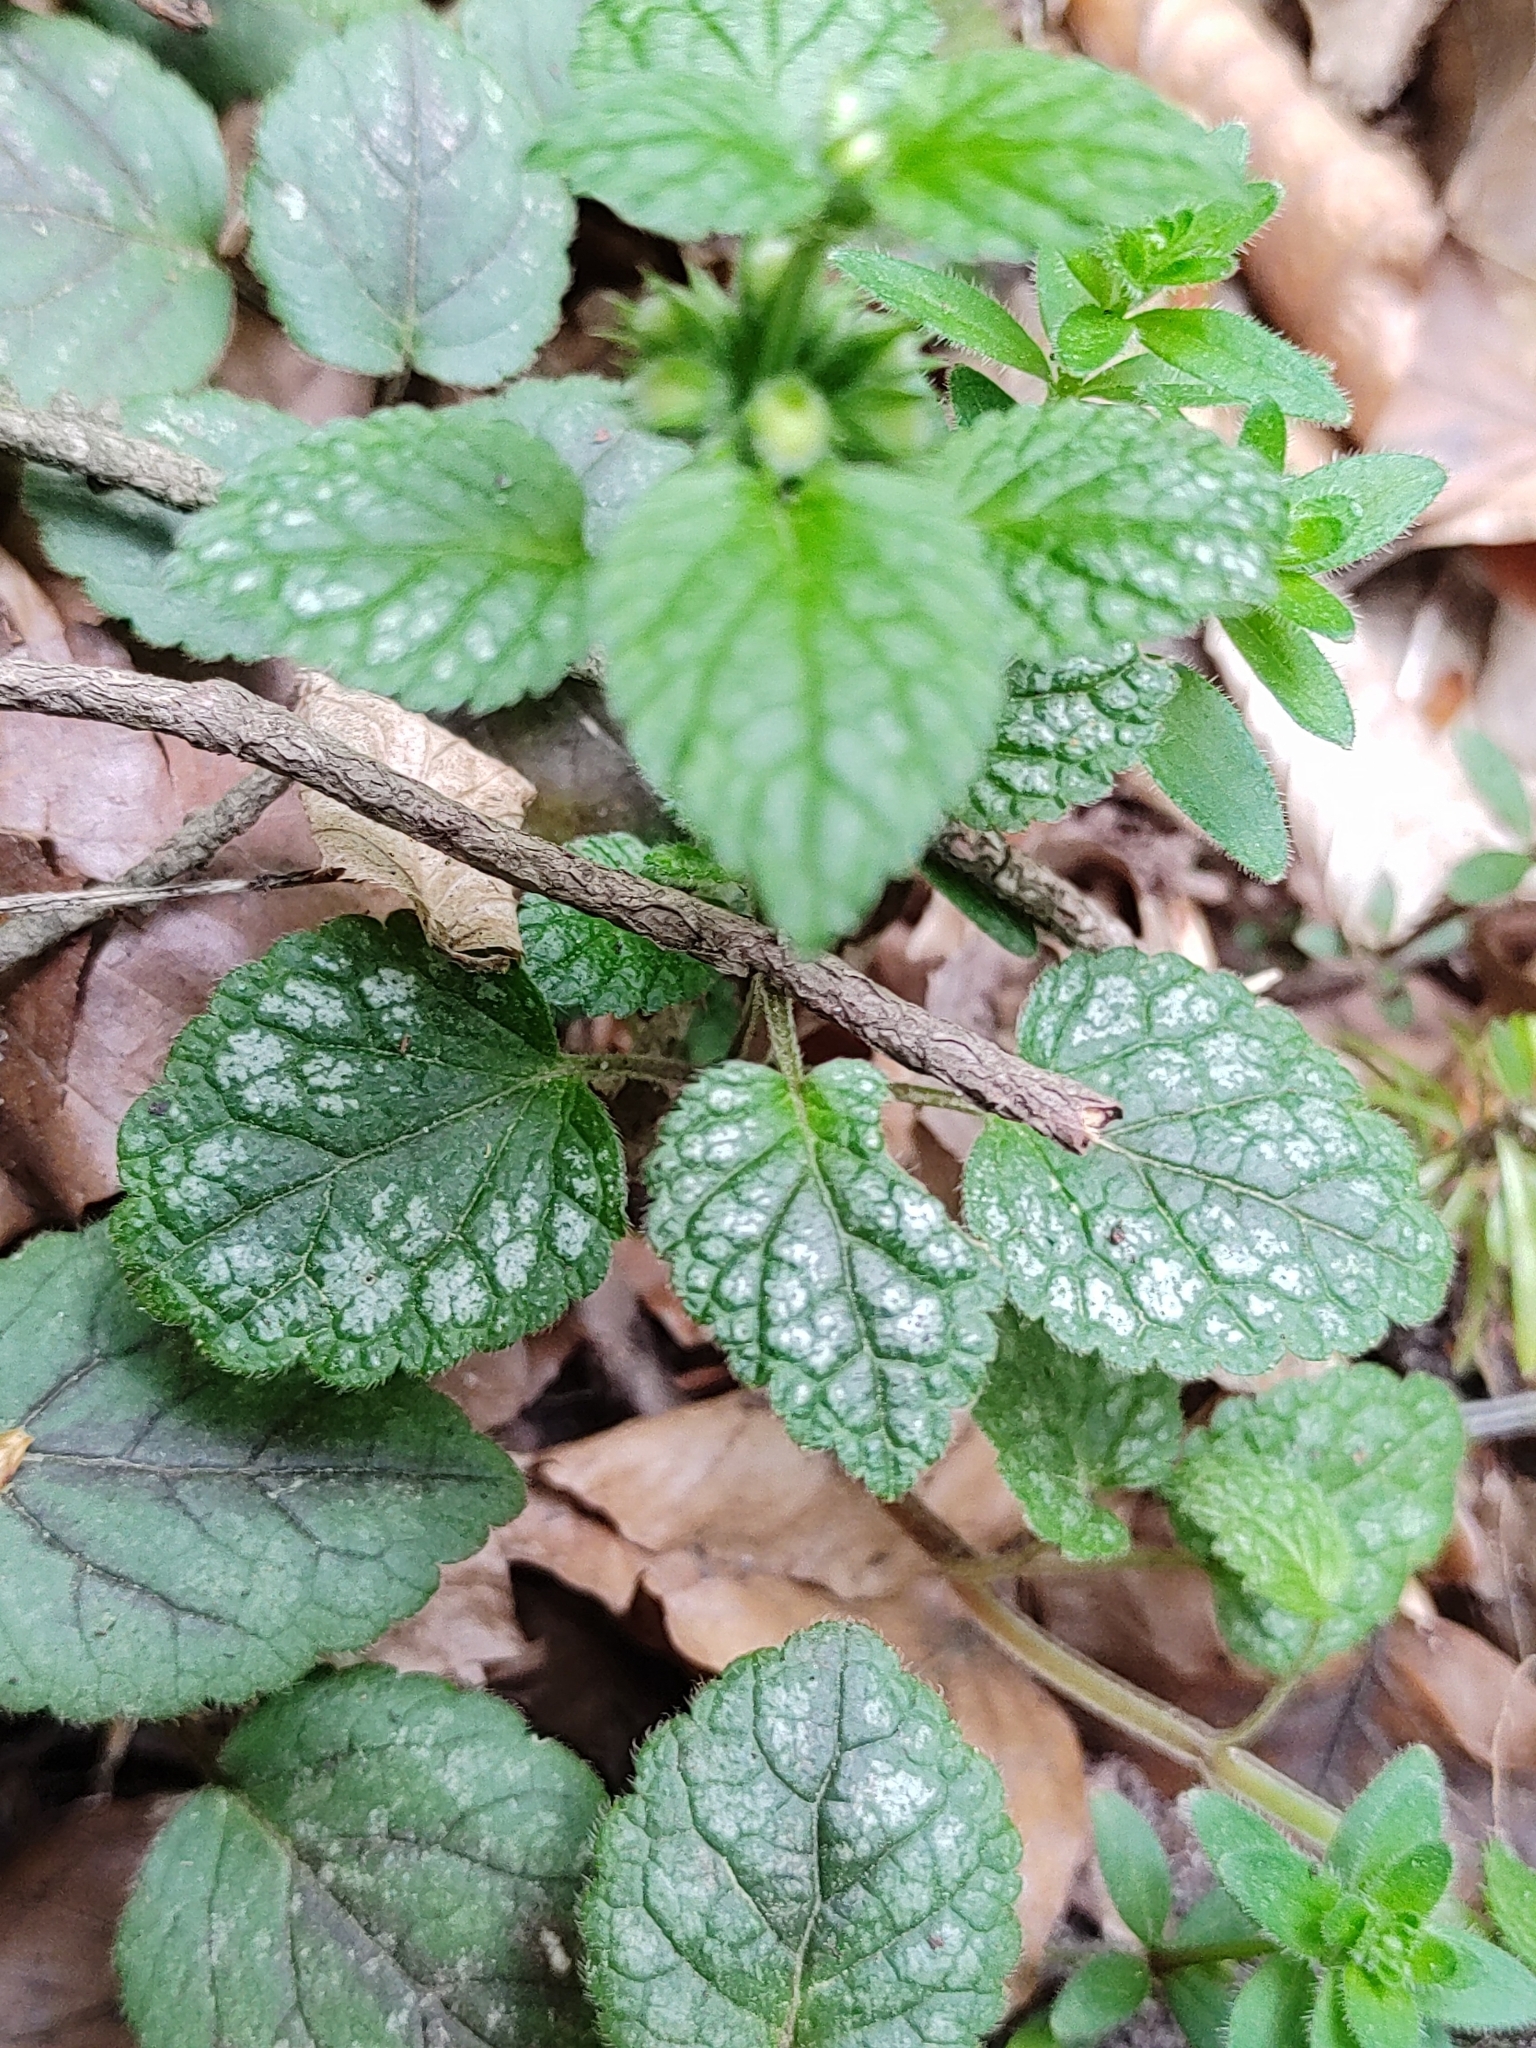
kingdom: Plantae
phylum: Tracheophyta
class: Magnoliopsida
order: Lamiales
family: Lamiaceae
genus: Lamium
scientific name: Lamium galeobdolon
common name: Yellow archangel
